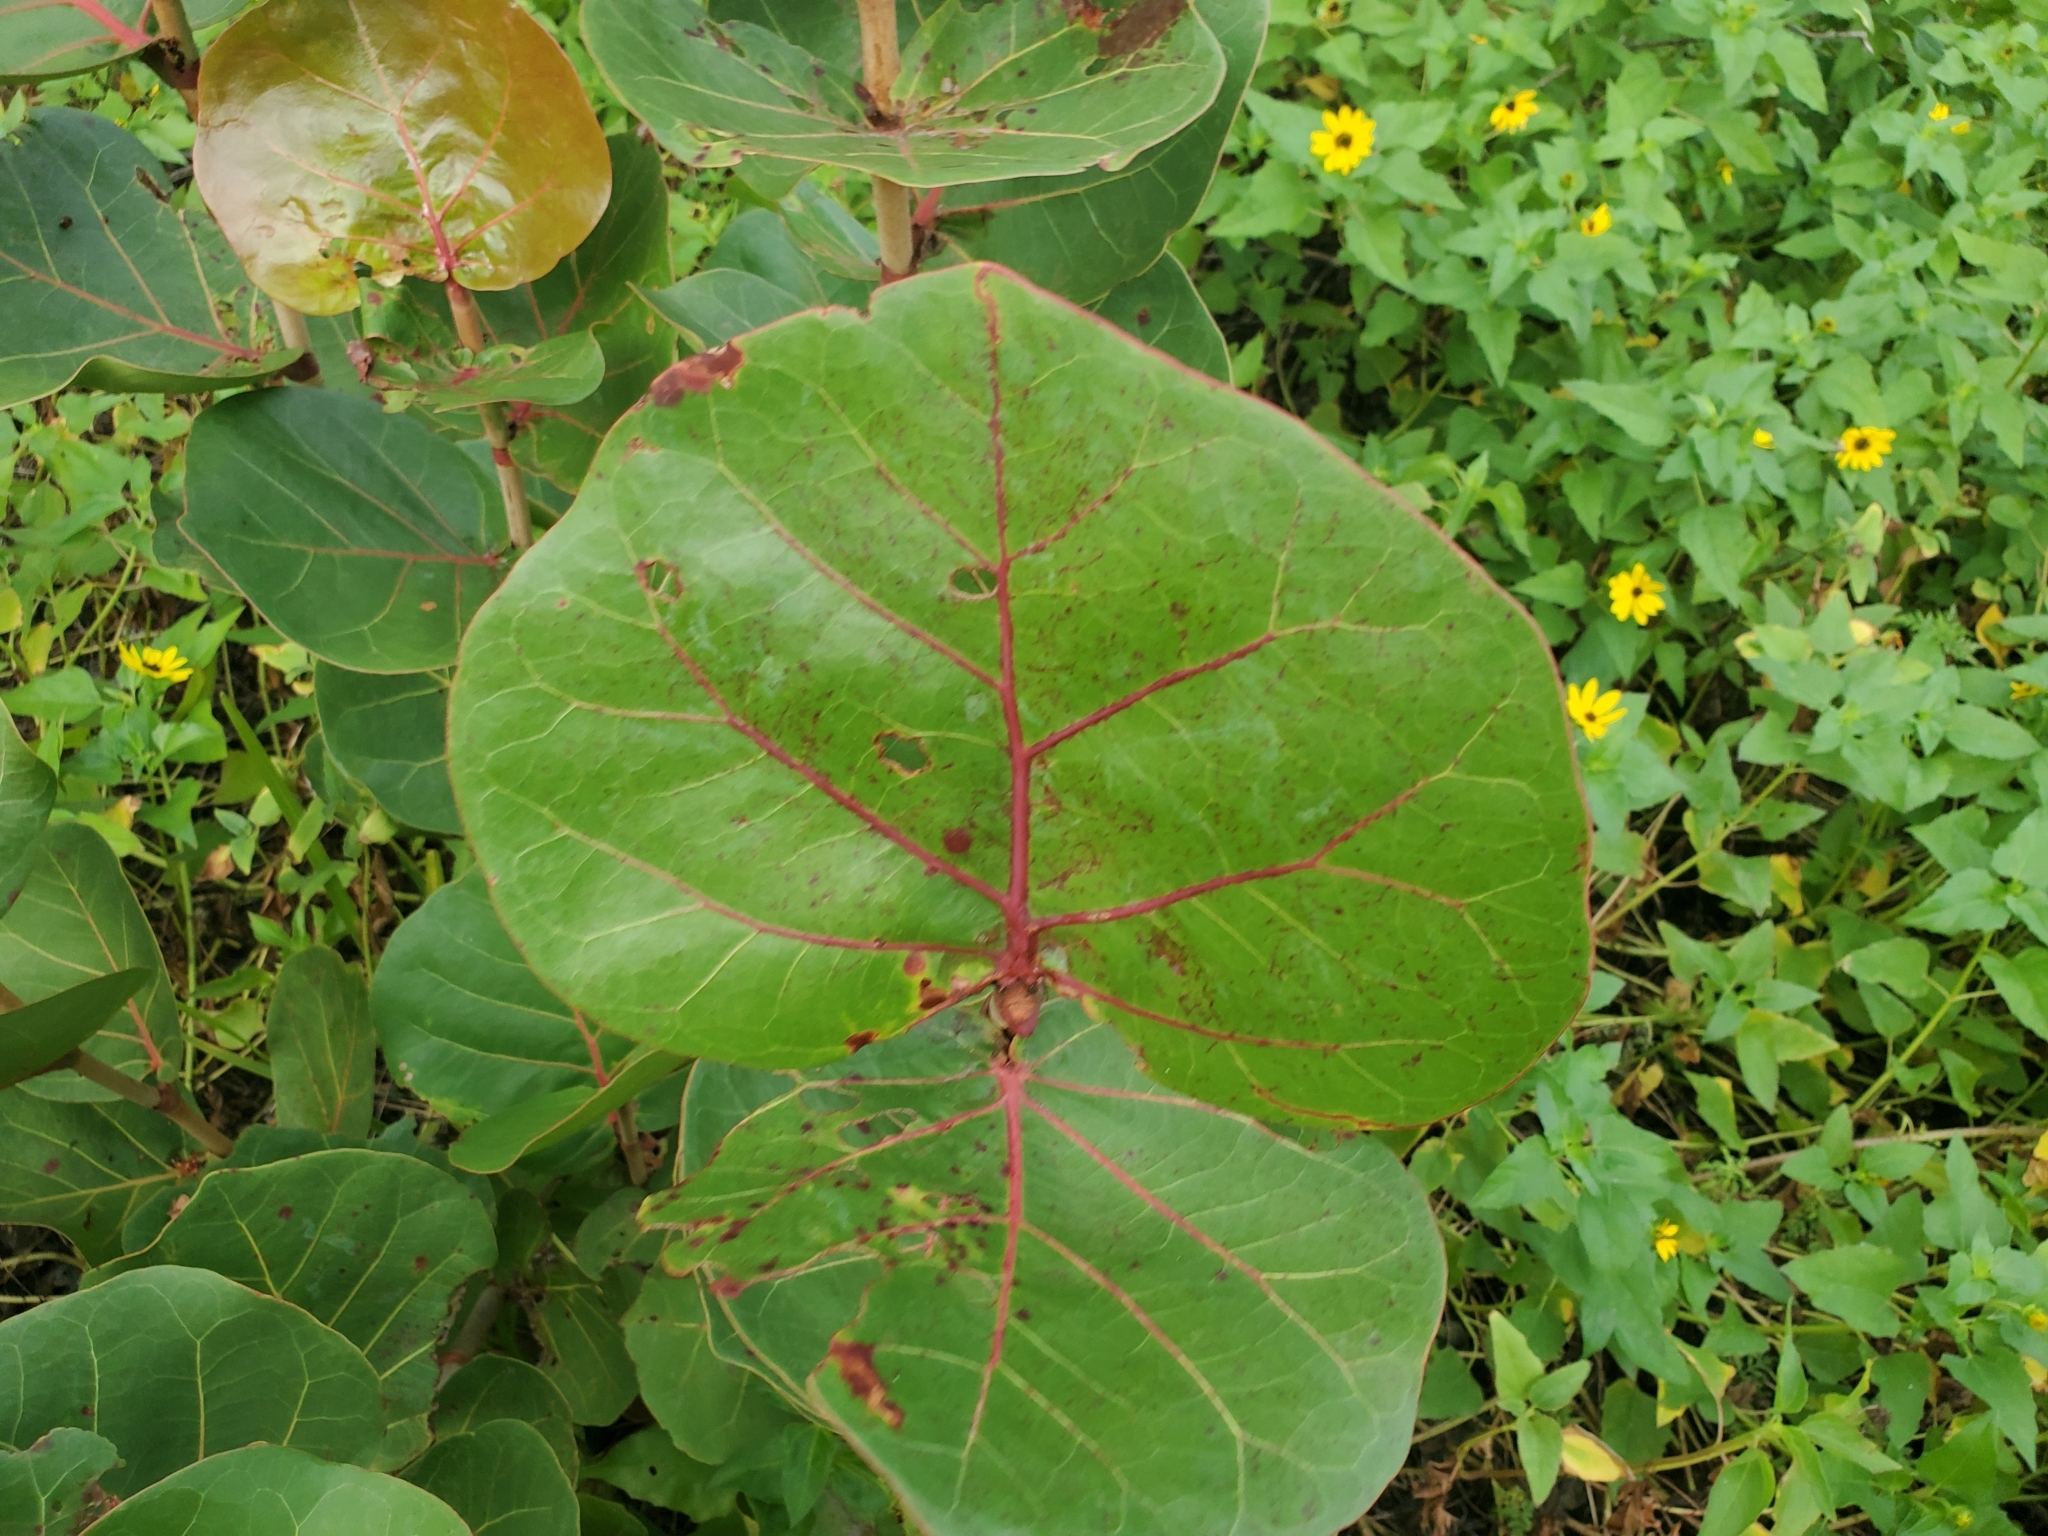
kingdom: Plantae
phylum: Tracheophyta
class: Magnoliopsida
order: Caryophyllales
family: Polygonaceae
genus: Coccoloba
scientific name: Coccoloba uvifera
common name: Seagrape
